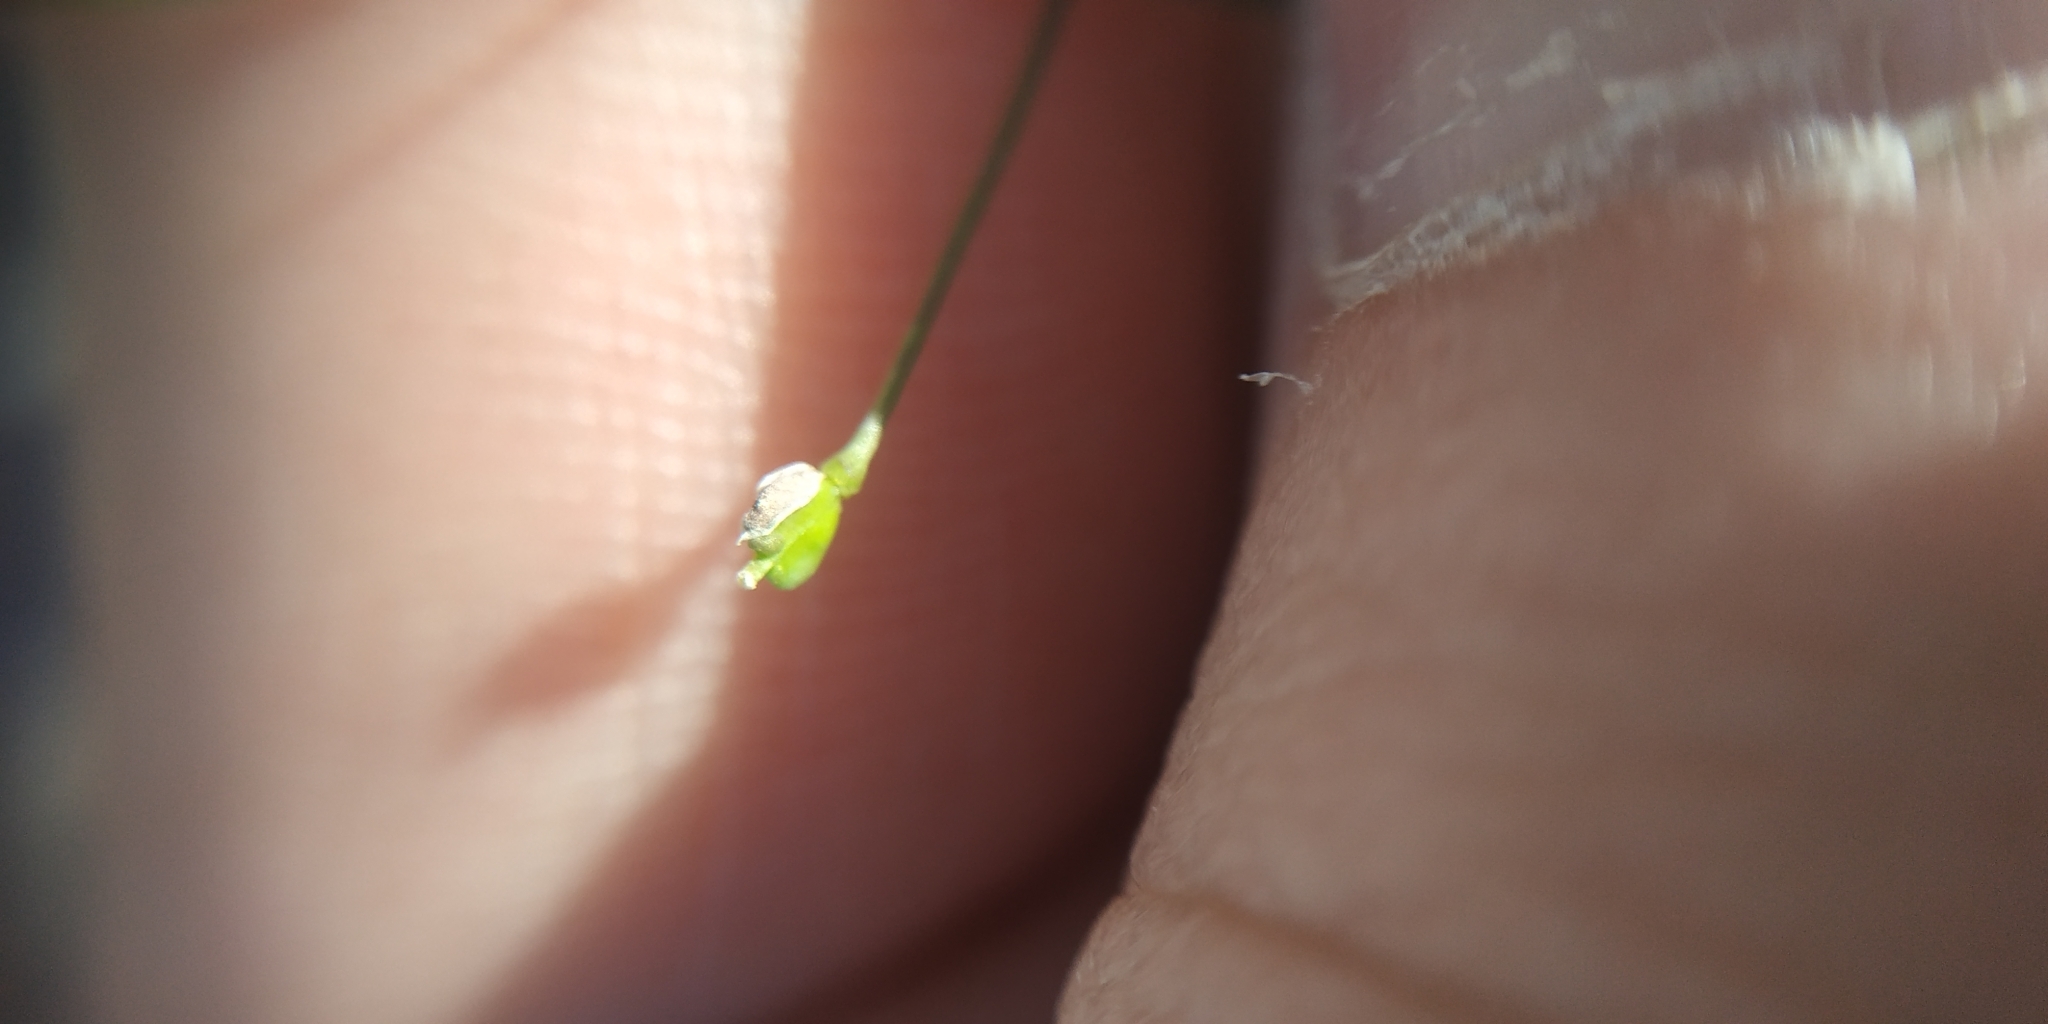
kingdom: Plantae
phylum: Tracheophyta
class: Magnoliopsida
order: Brassicales
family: Brassicaceae
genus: Capsella
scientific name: Capsella bursa-pastoris
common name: Shepherd's purse
